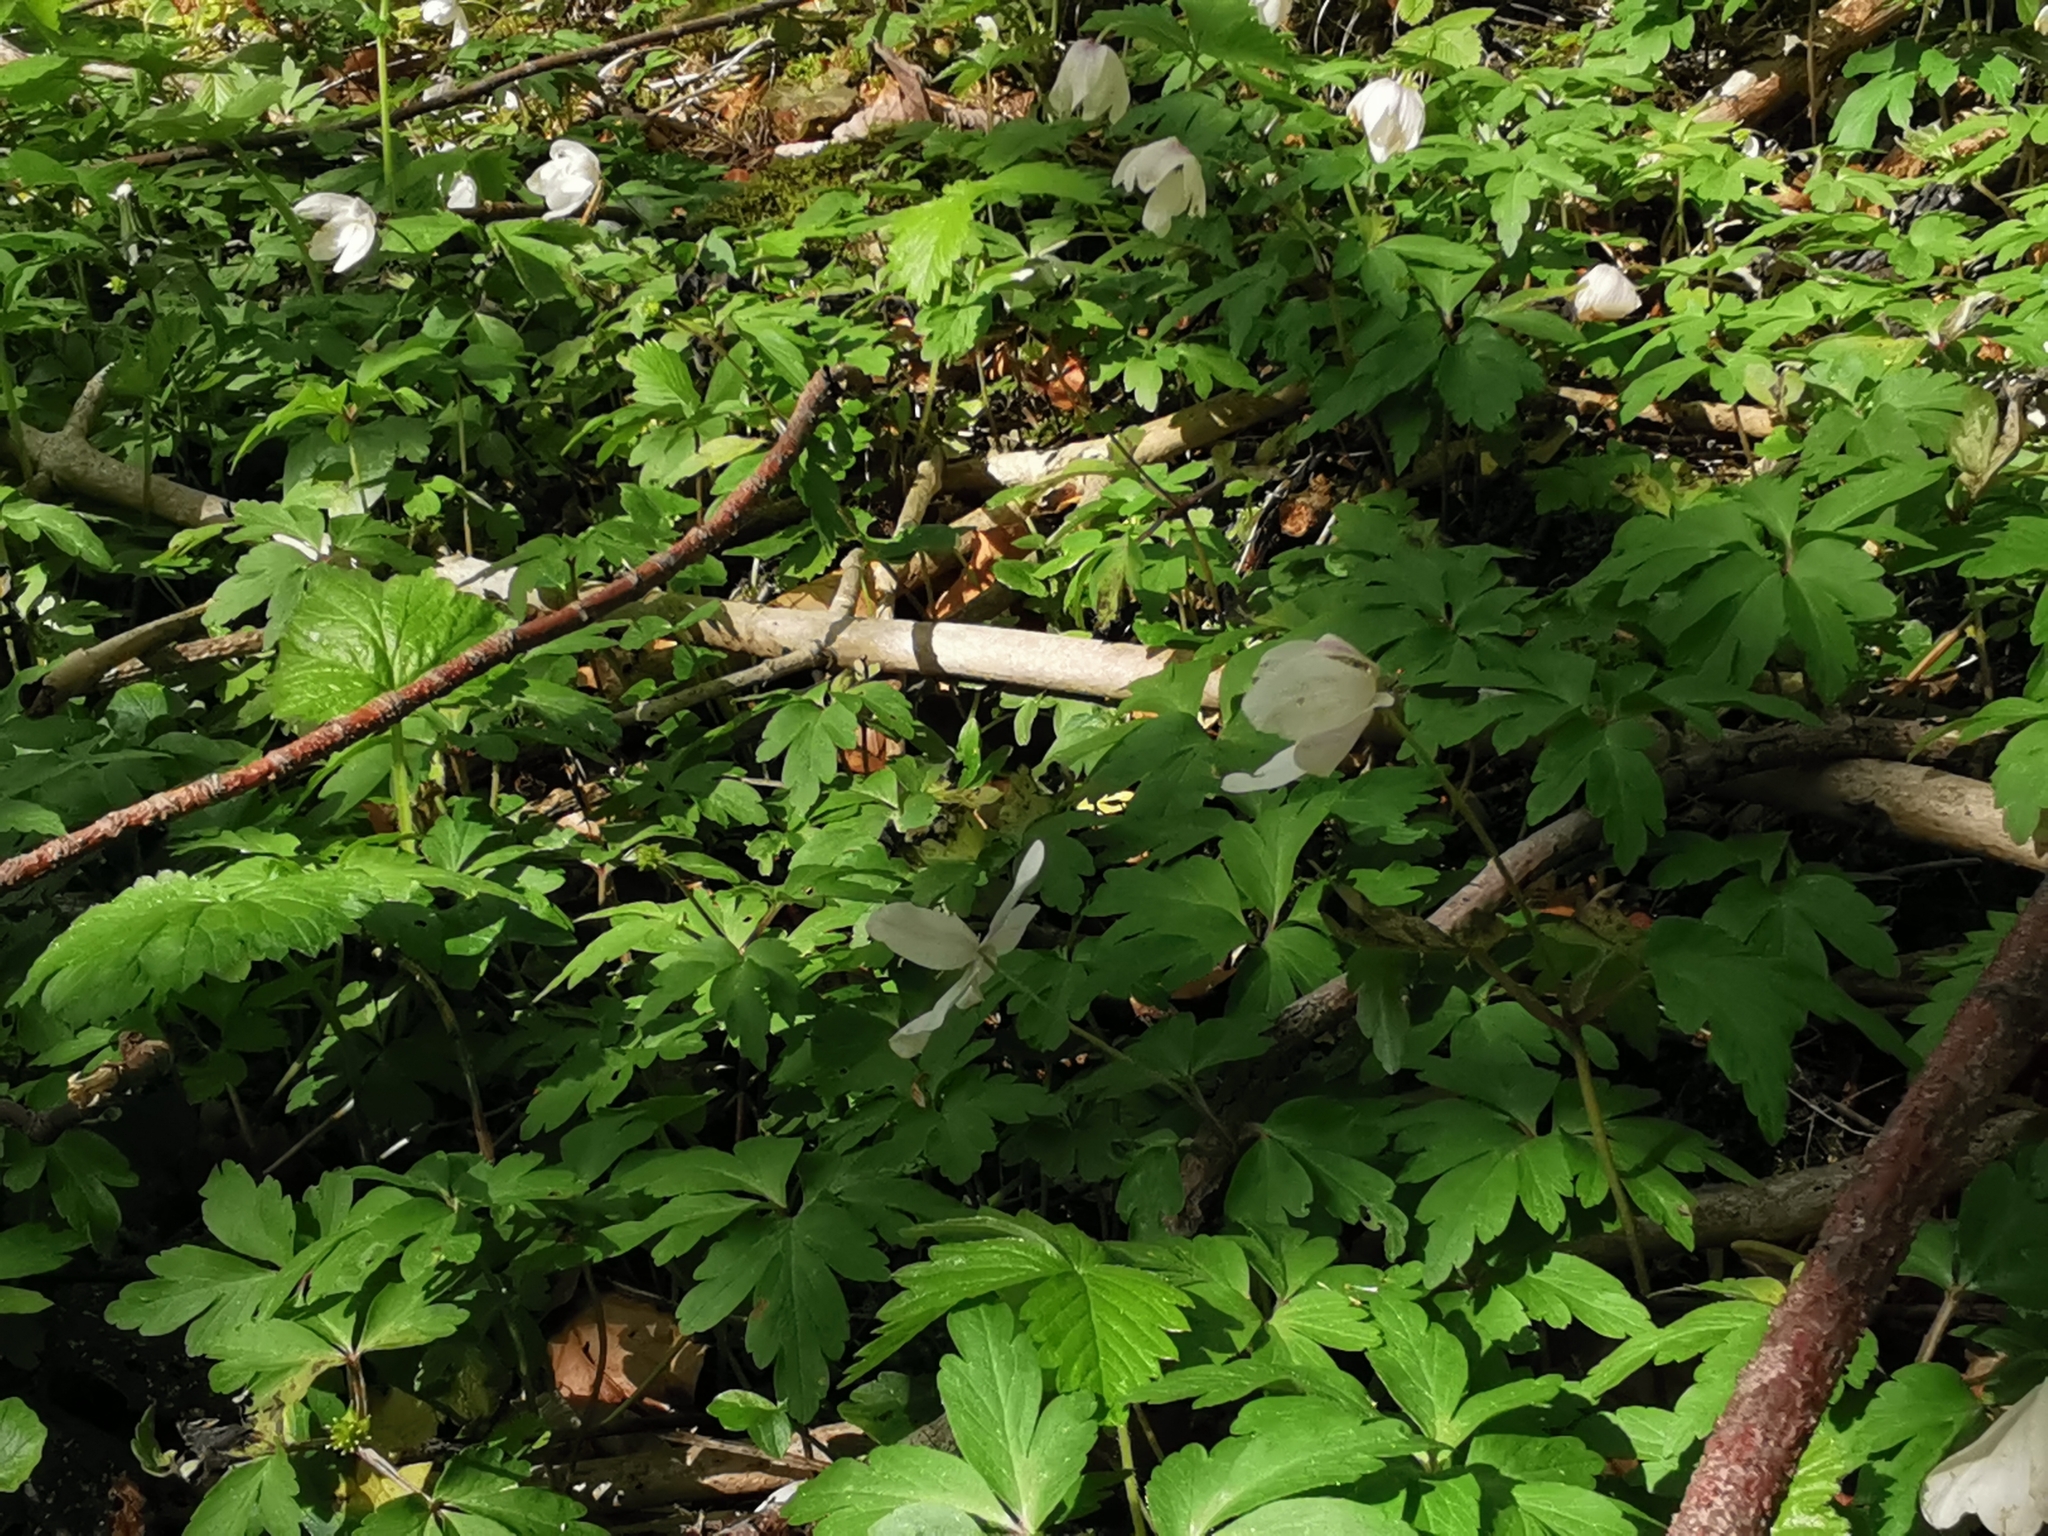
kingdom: Plantae
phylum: Tracheophyta
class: Magnoliopsida
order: Ranunculales
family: Ranunculaceae
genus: Anemone
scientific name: Anemone nemorosa
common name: Wood anemone
